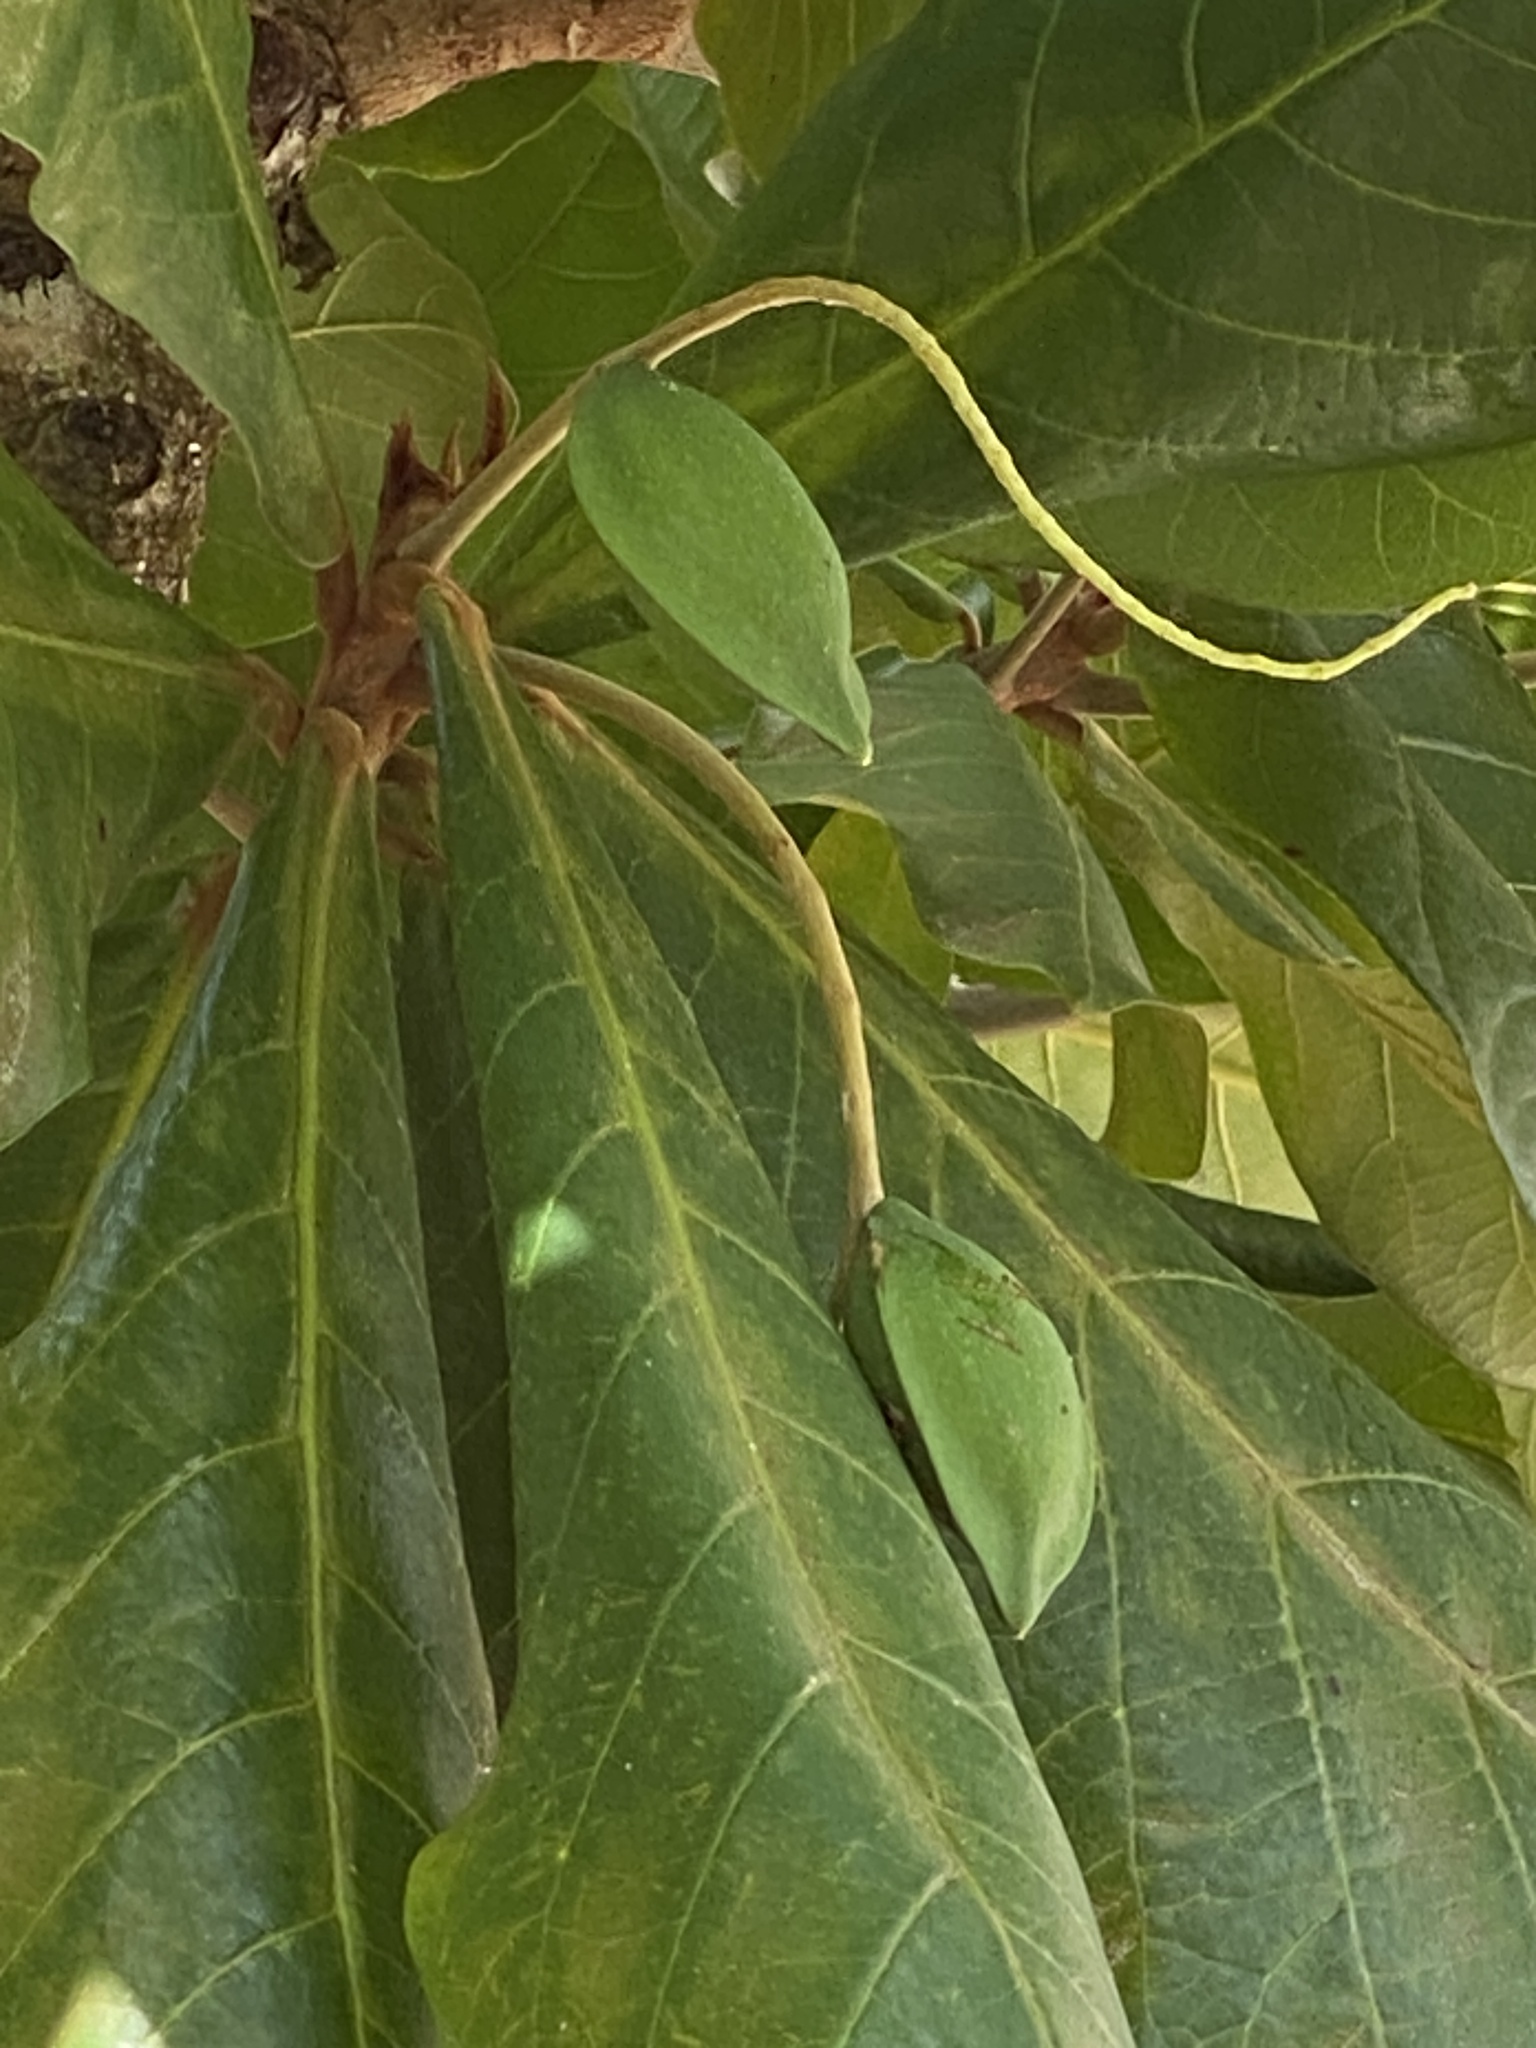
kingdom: Plantae
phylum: Tracheophyta
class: Magnoliopsida
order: Myrtales
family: Combretaceae
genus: Terminalia
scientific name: Terminalia catappa
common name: Tropical almond
